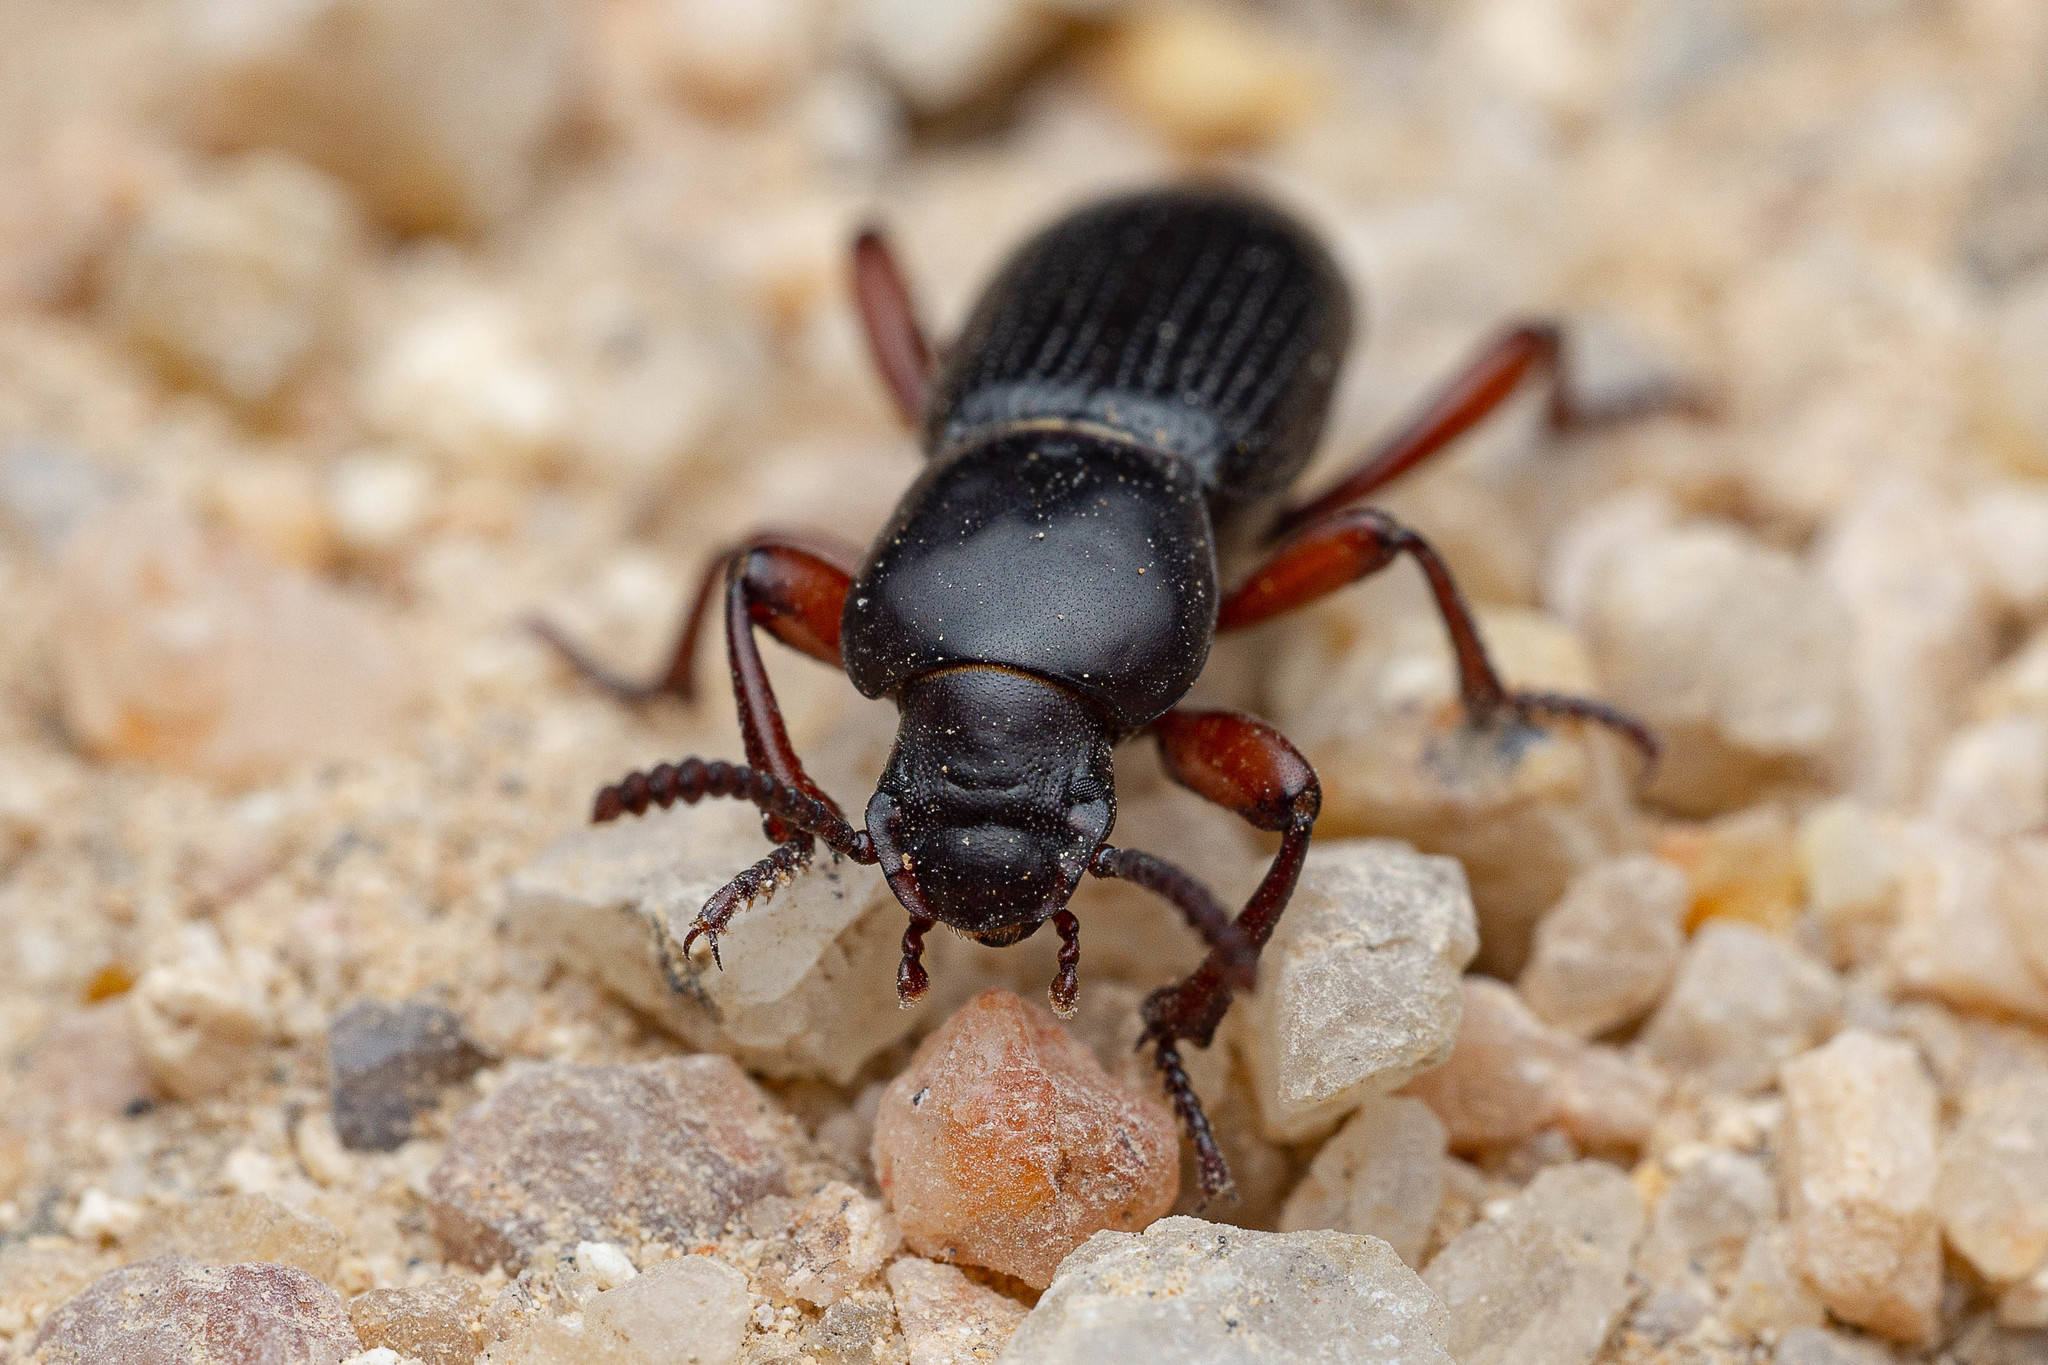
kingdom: Animalia
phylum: Arthropoda
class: Insecta
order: Coleoptera
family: Tenebrionidae
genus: Argoporis
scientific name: Argoporis rufipes
